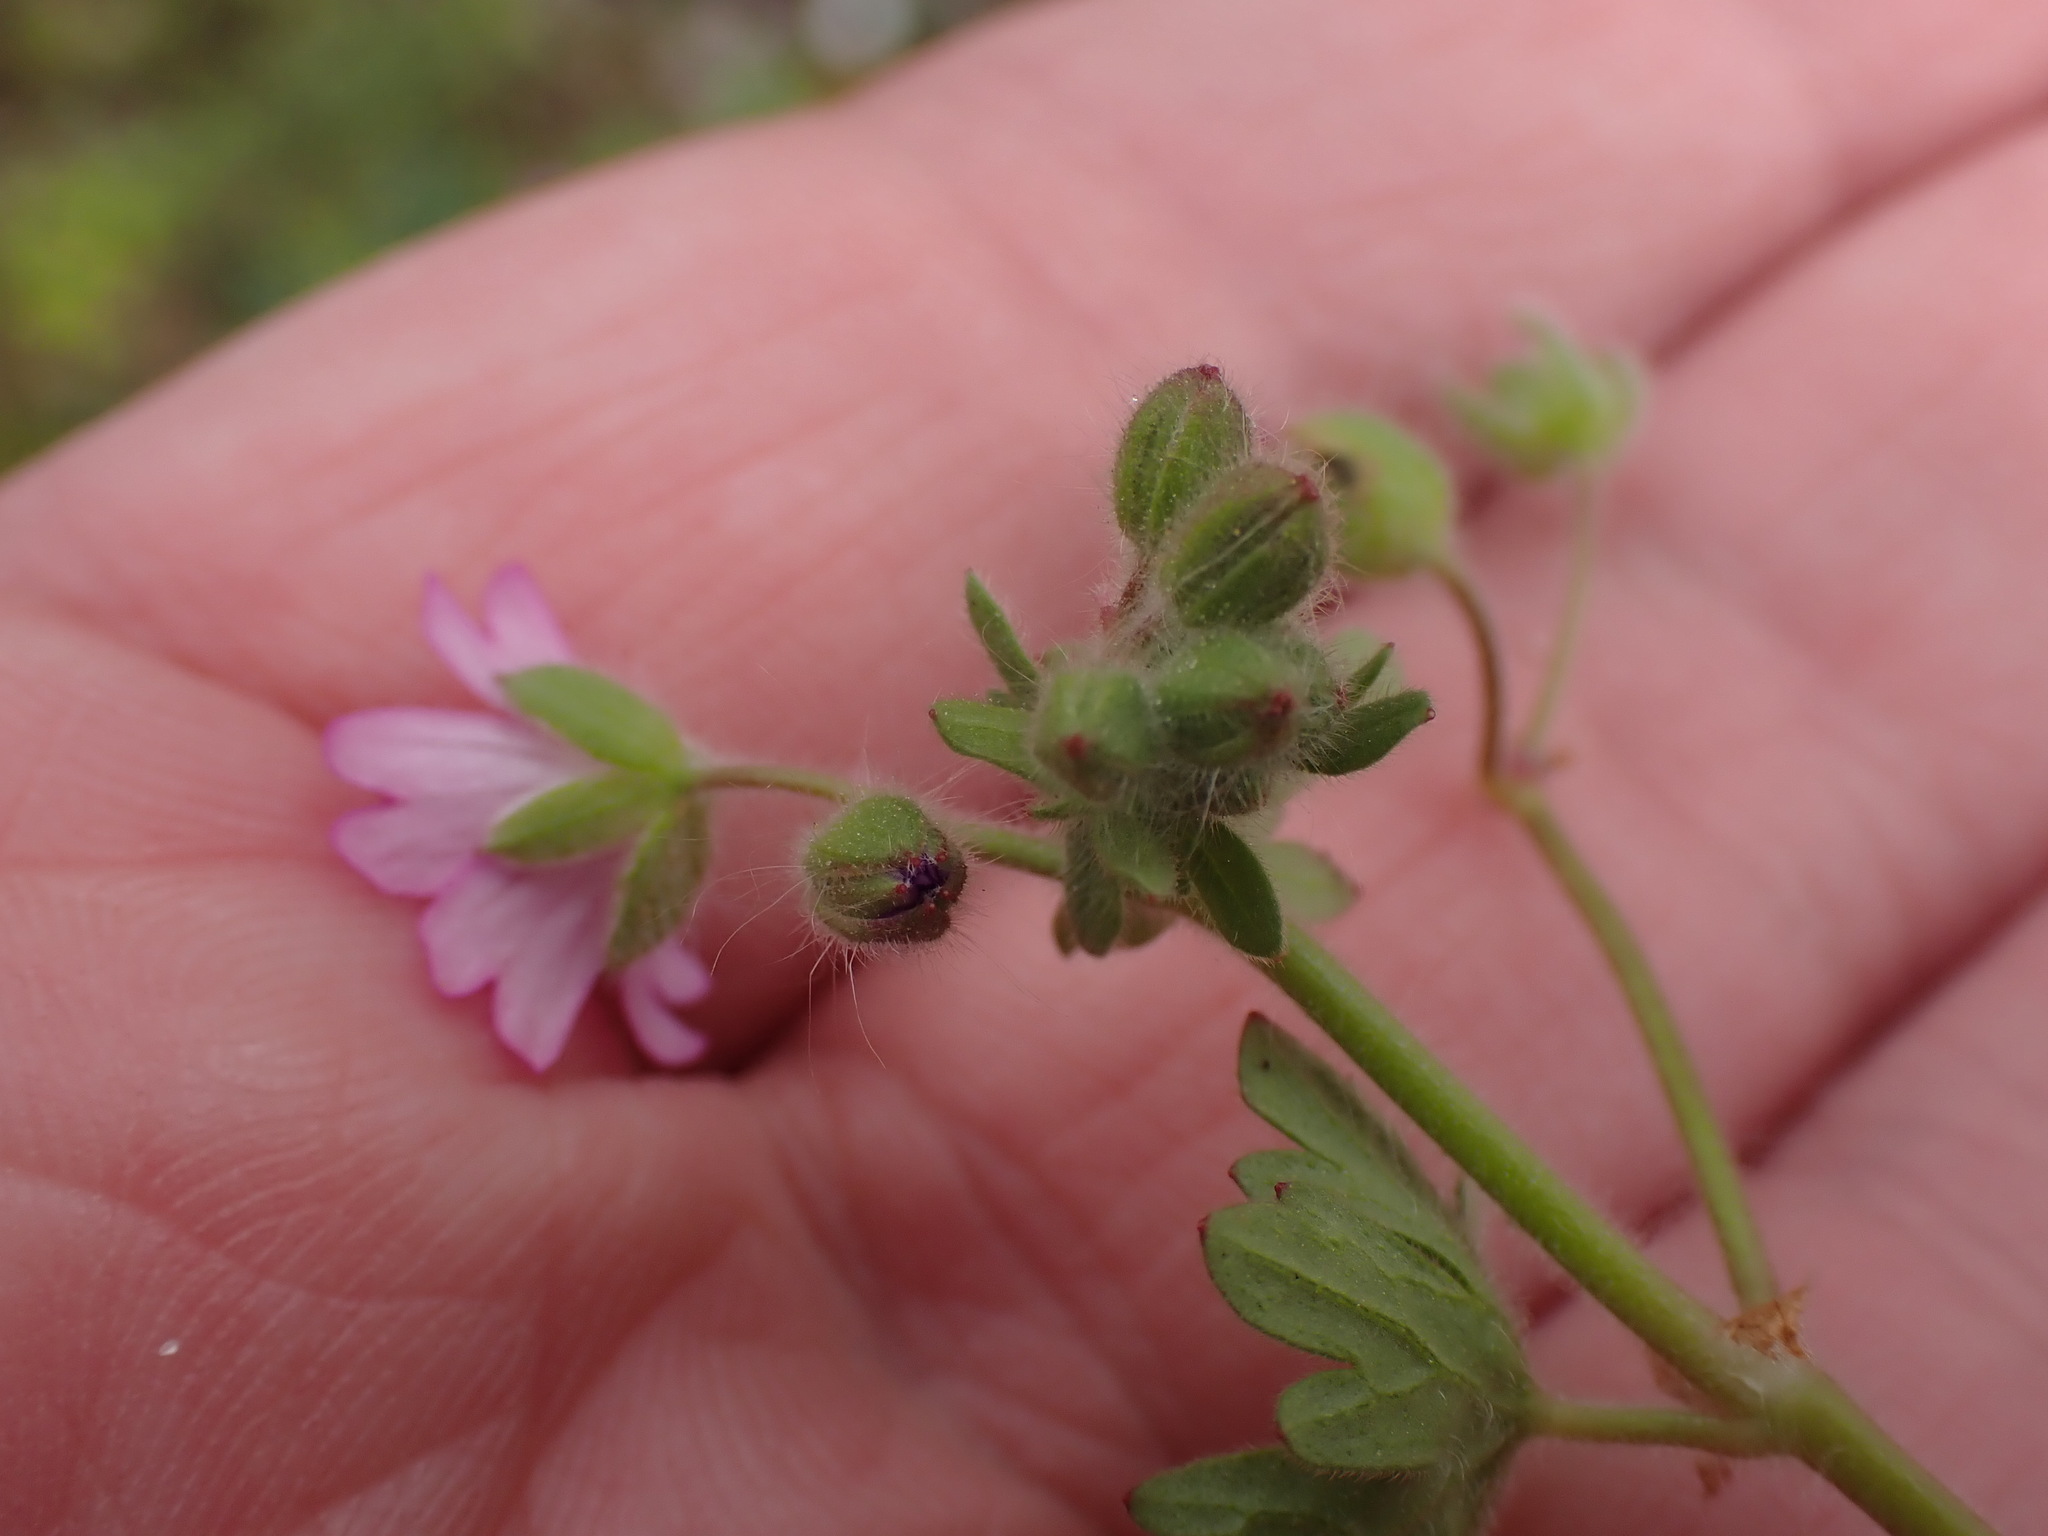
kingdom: Plantae
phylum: Tracheophyta
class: Magnoliopsida
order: Geraniales
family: Geraniaceae
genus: Geranium
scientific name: Geranium molle
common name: Dove's-foot crane's-bill
